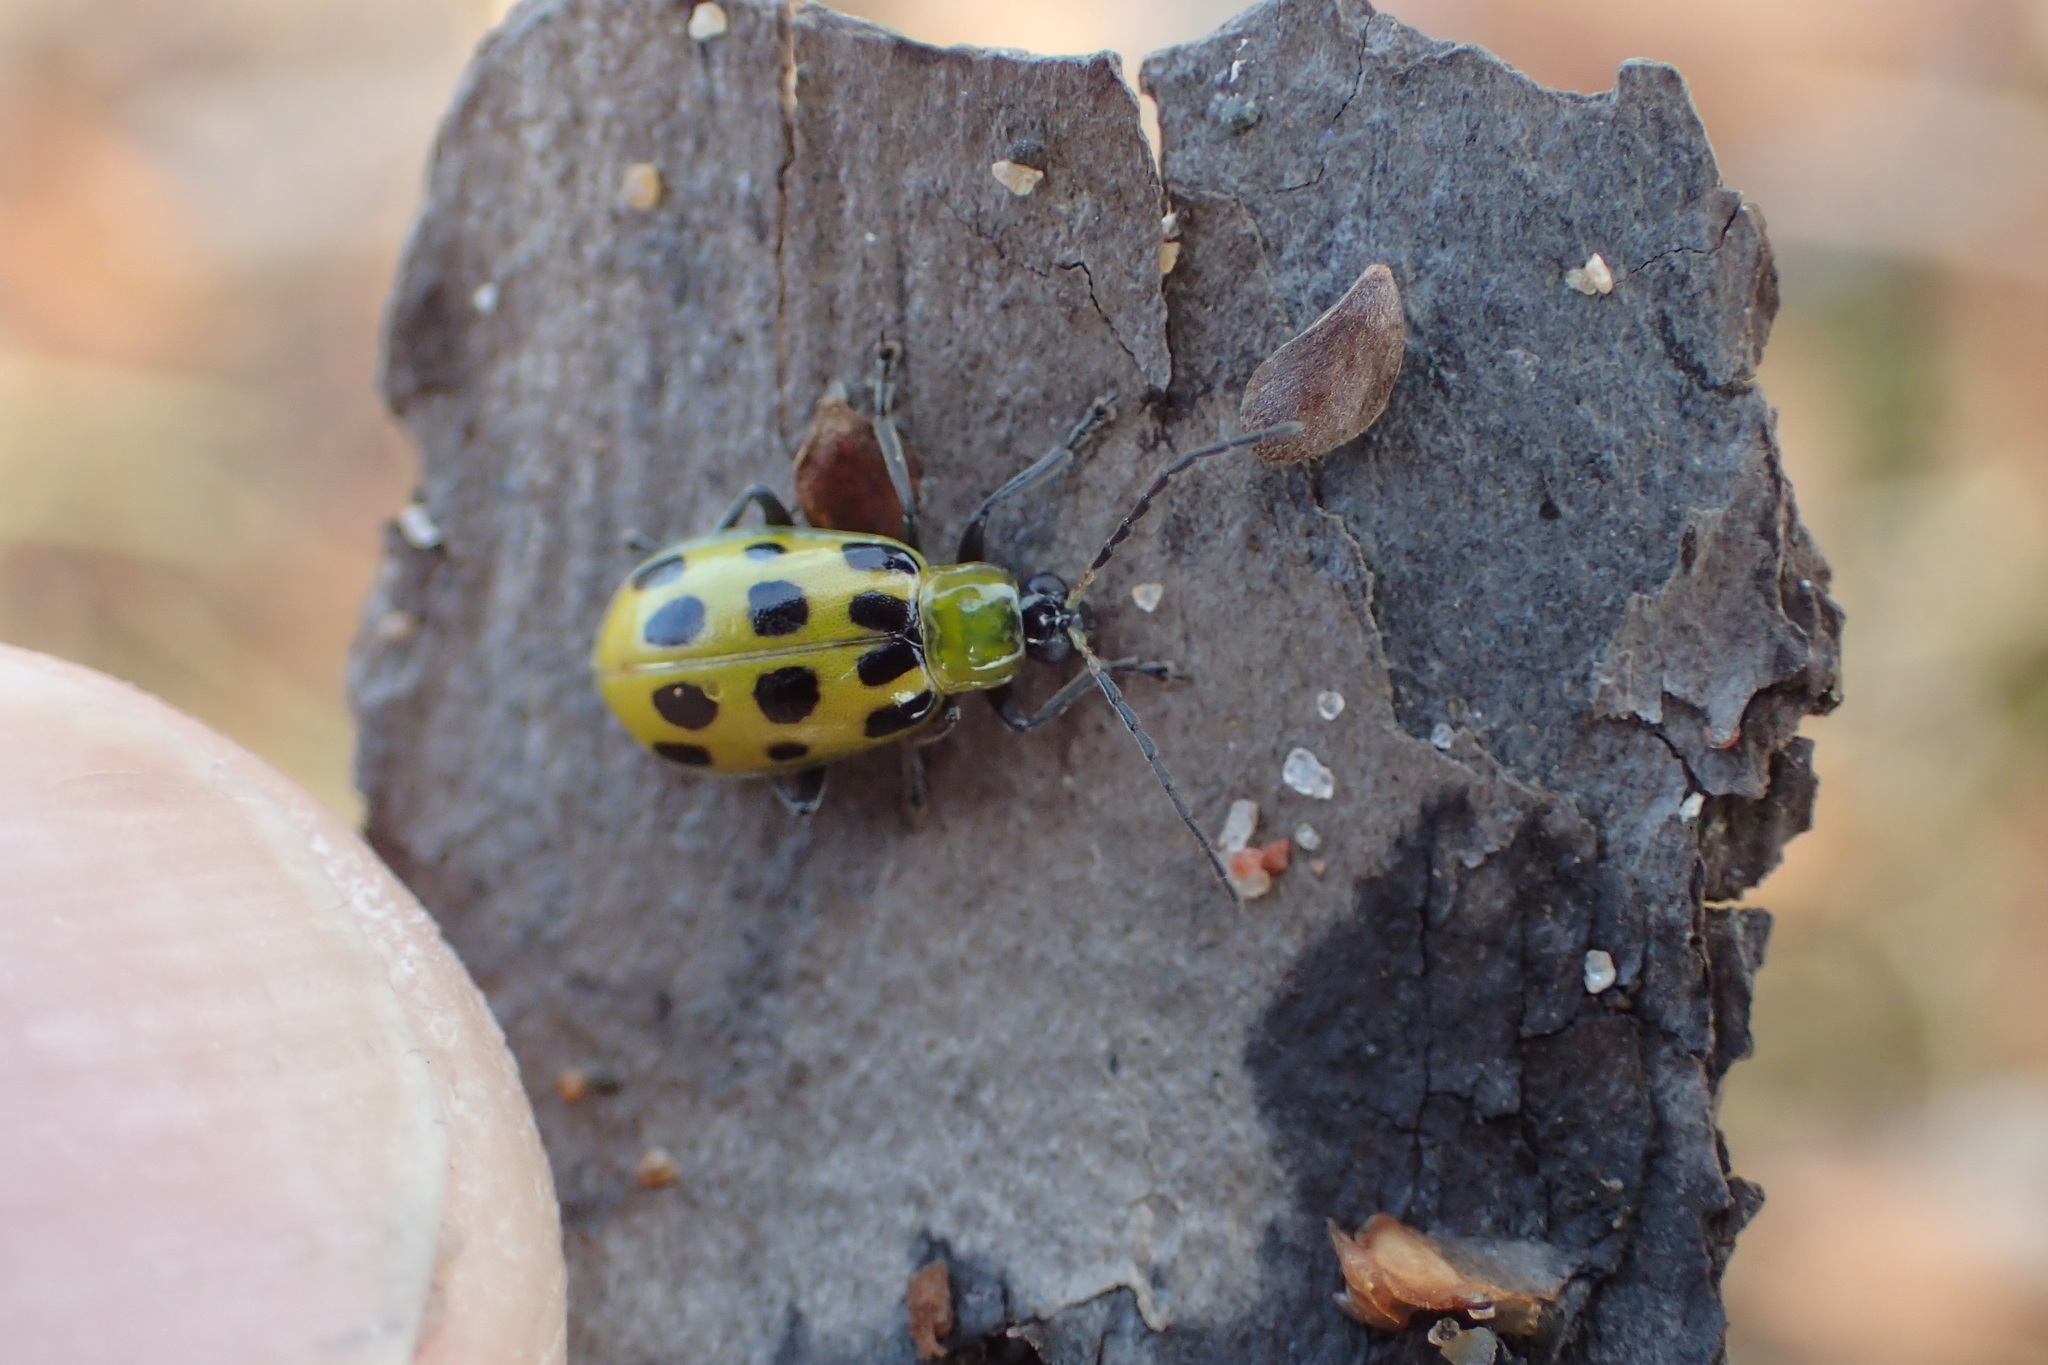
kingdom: Animalia
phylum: Arthropoda
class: Insecta
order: Coleoptera
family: Chrysomelidae
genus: Diabrotica
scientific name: Diabrotica undecimpunctata
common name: Spotted cucumber beetle
